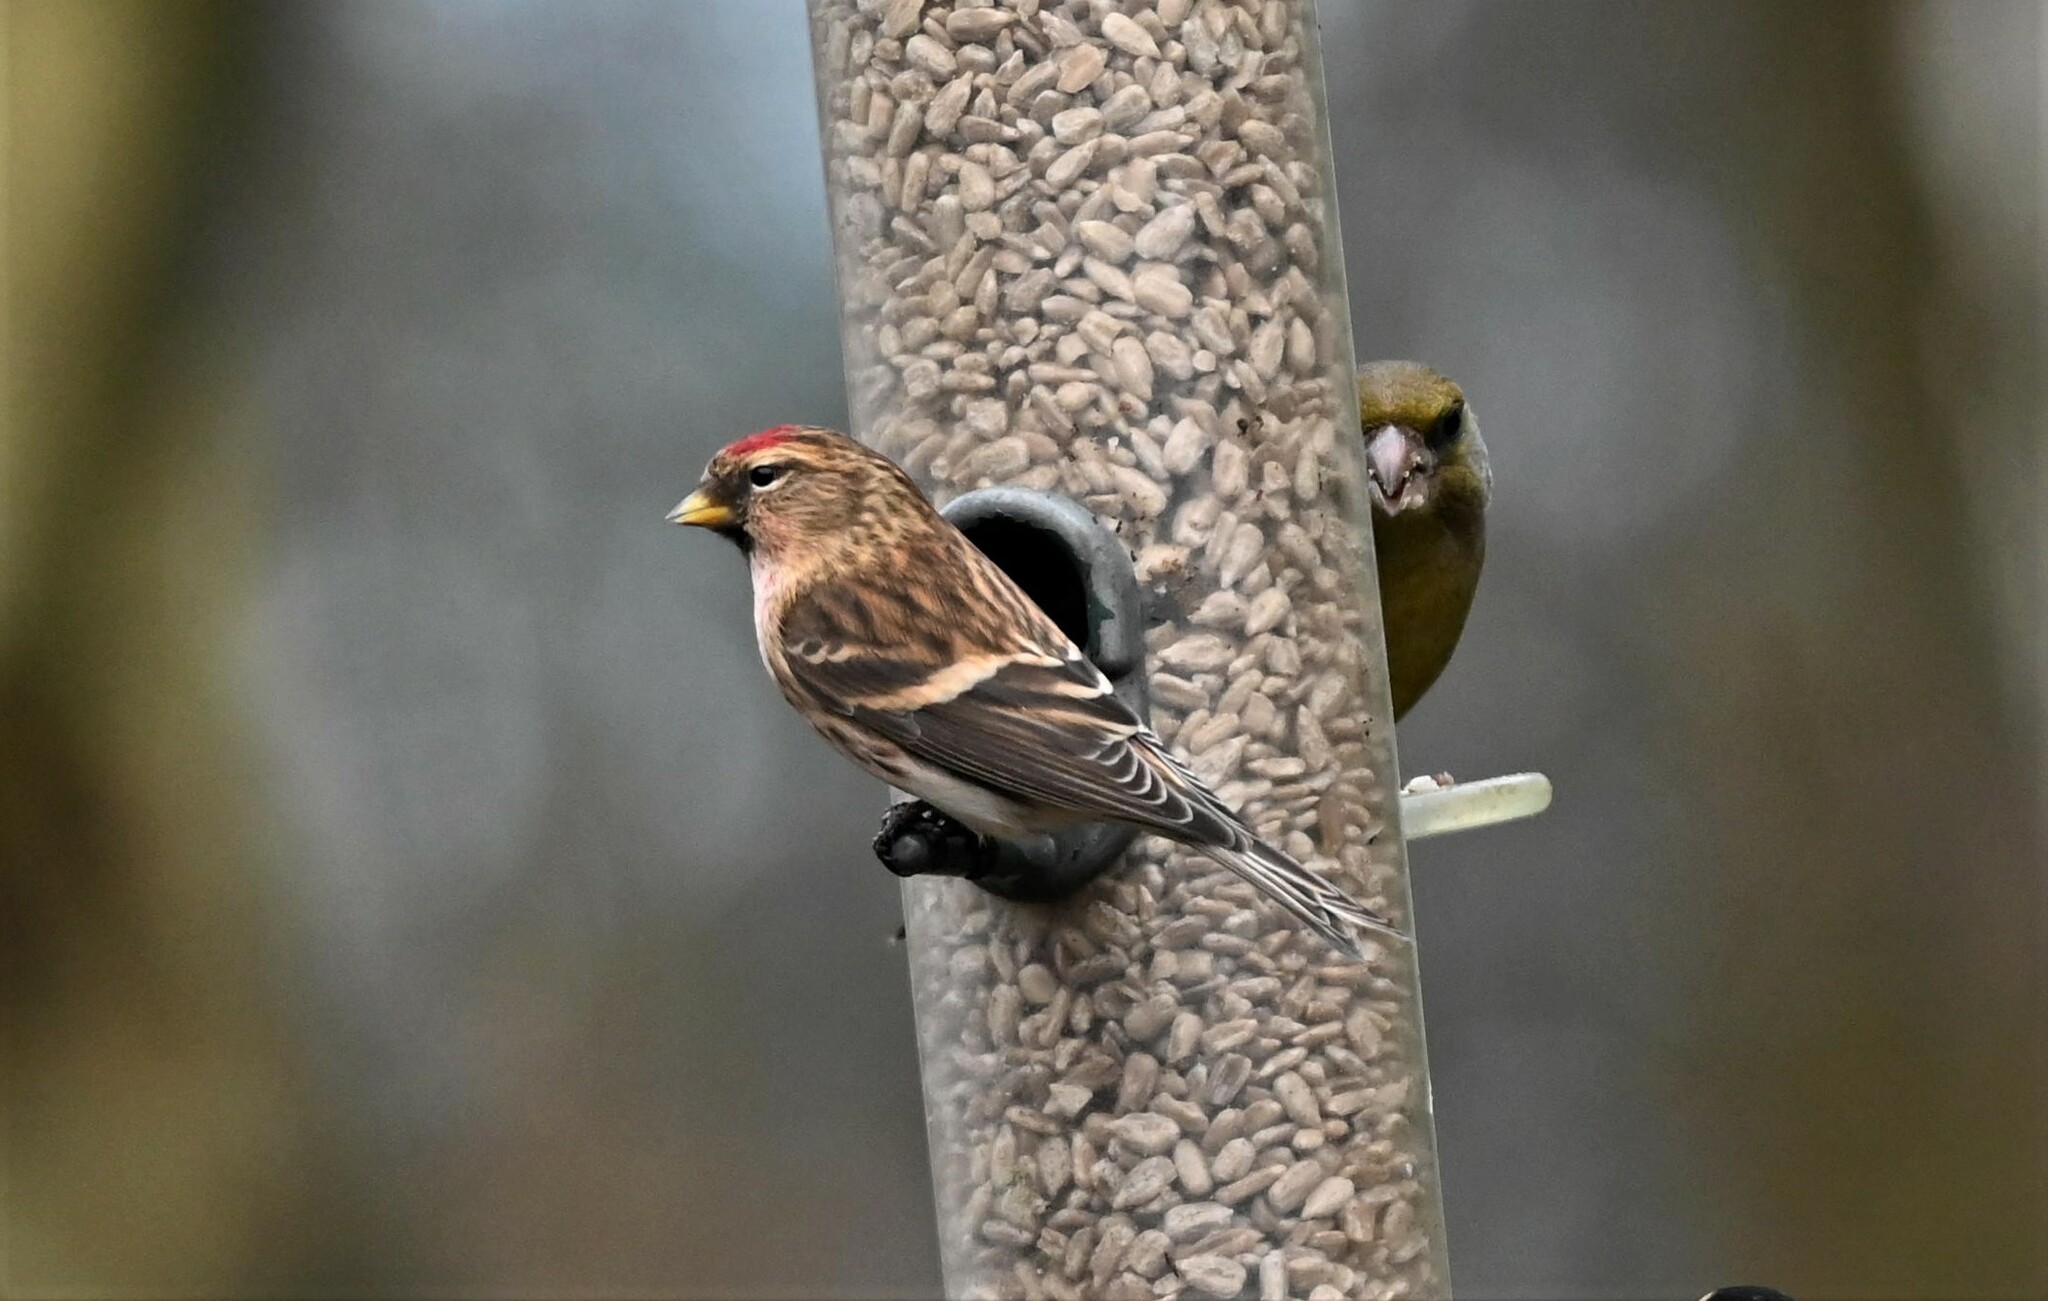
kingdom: Animalia
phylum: Chordata
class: Aves
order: Passeriformes
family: Fringillidae
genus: Acanthis
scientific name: Acanthis flammea
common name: Common redpoll
